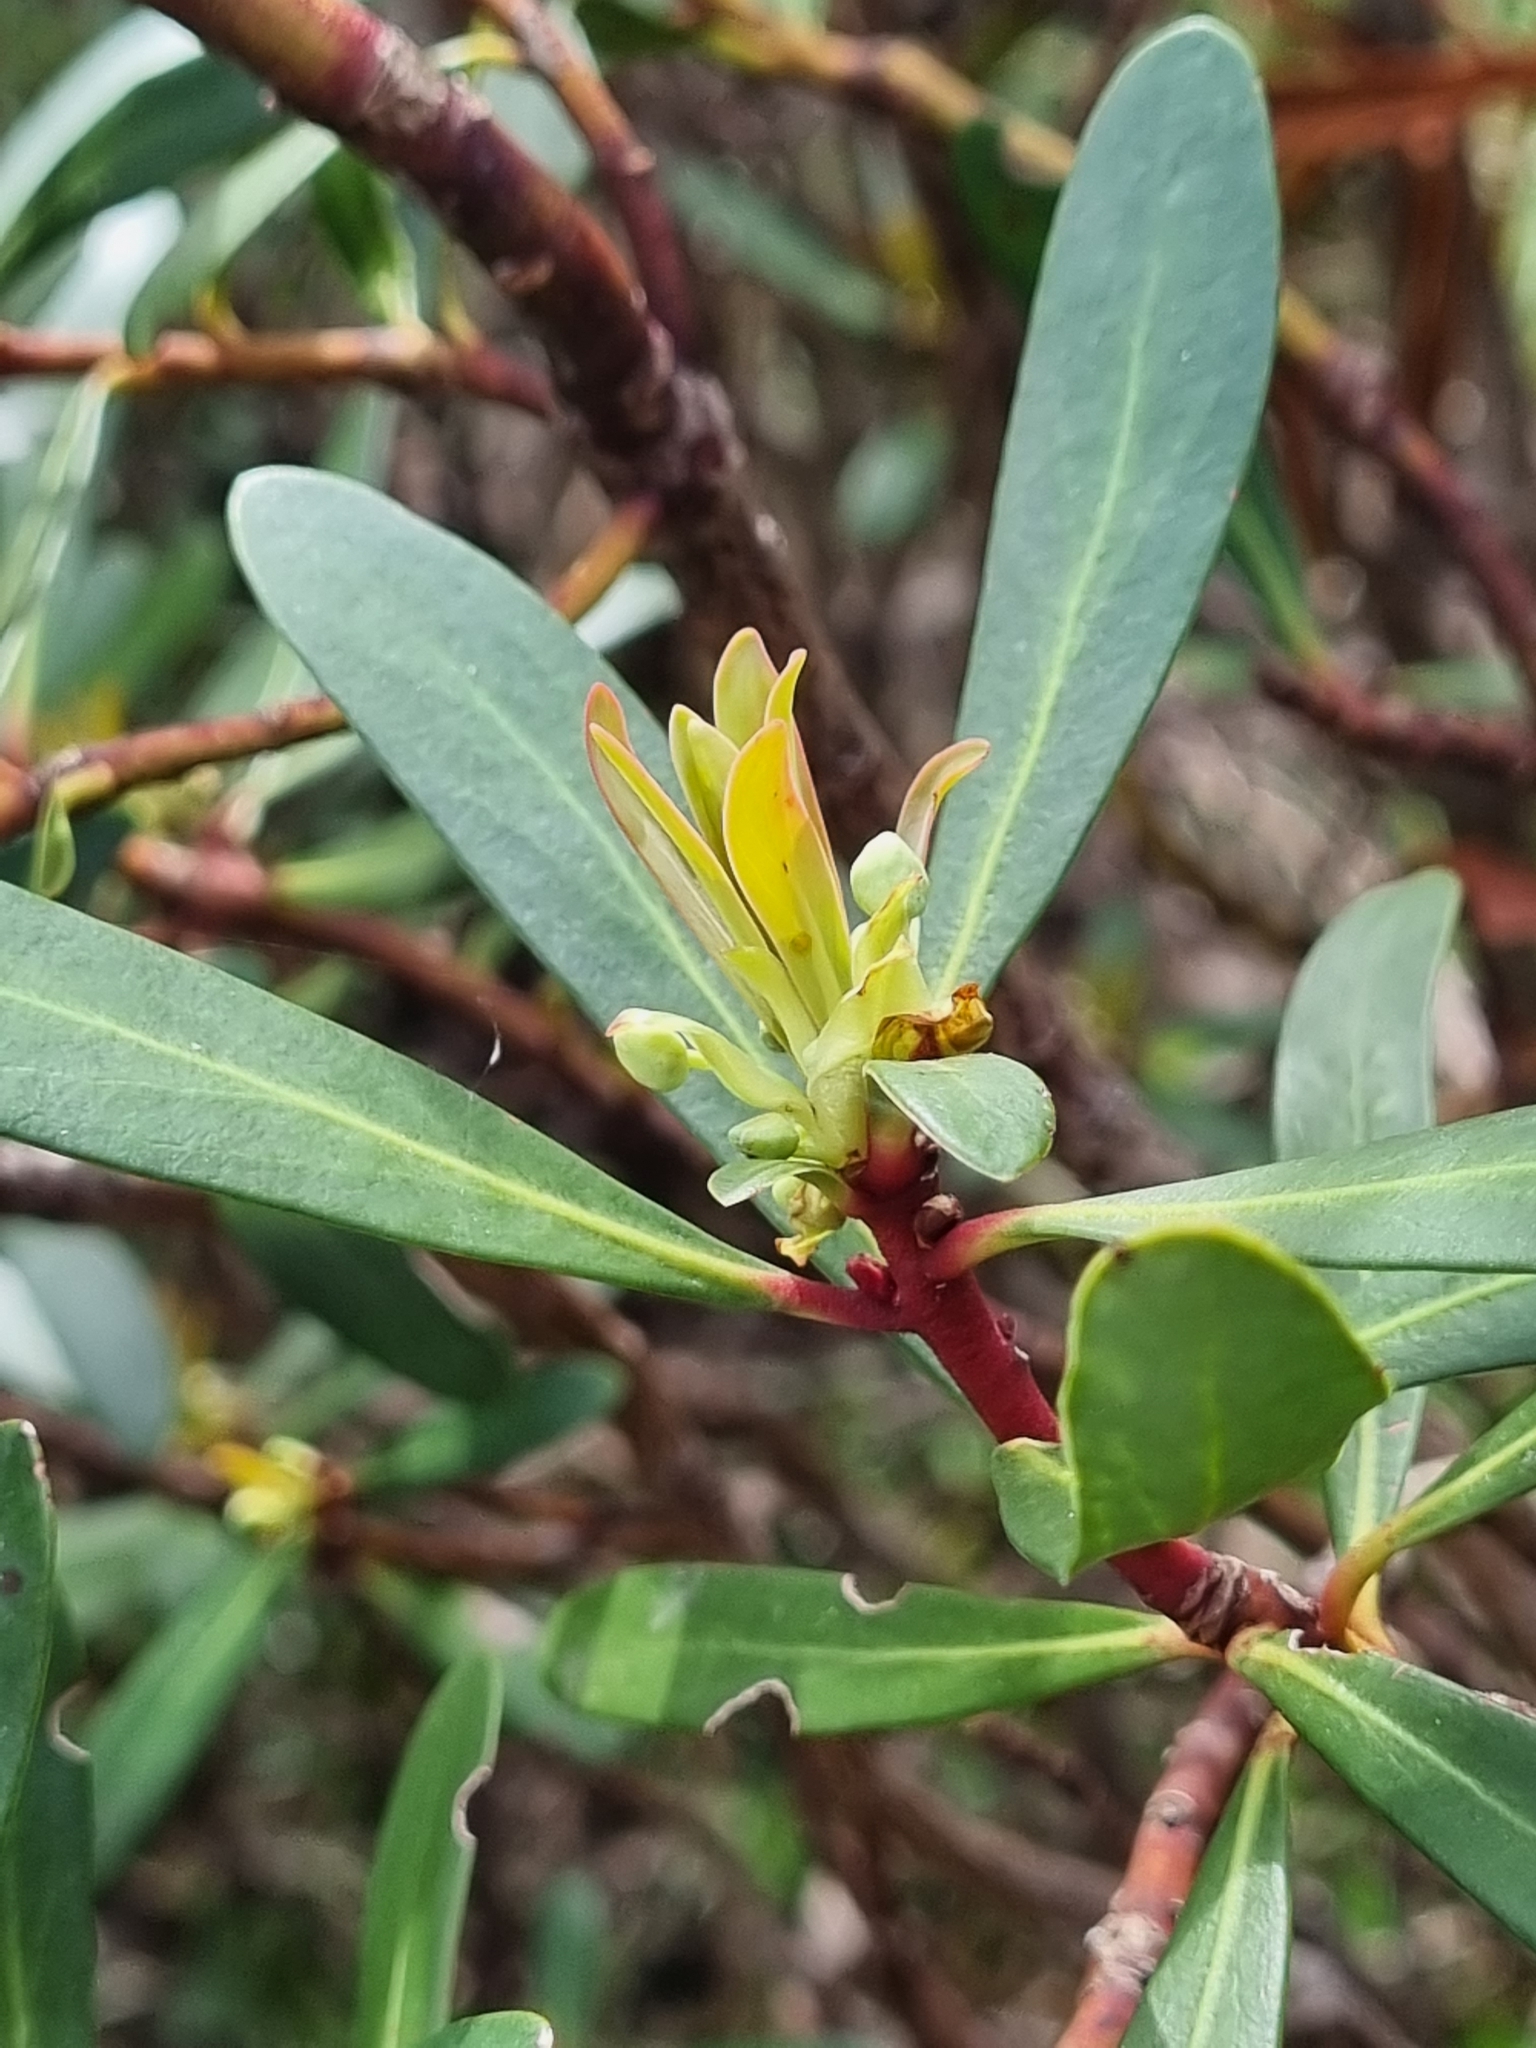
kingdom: Plantae
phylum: Tracheophyta
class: Magnoliopsida
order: Canellales
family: Winteraceae
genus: Drimys
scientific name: Drimys xerophila
